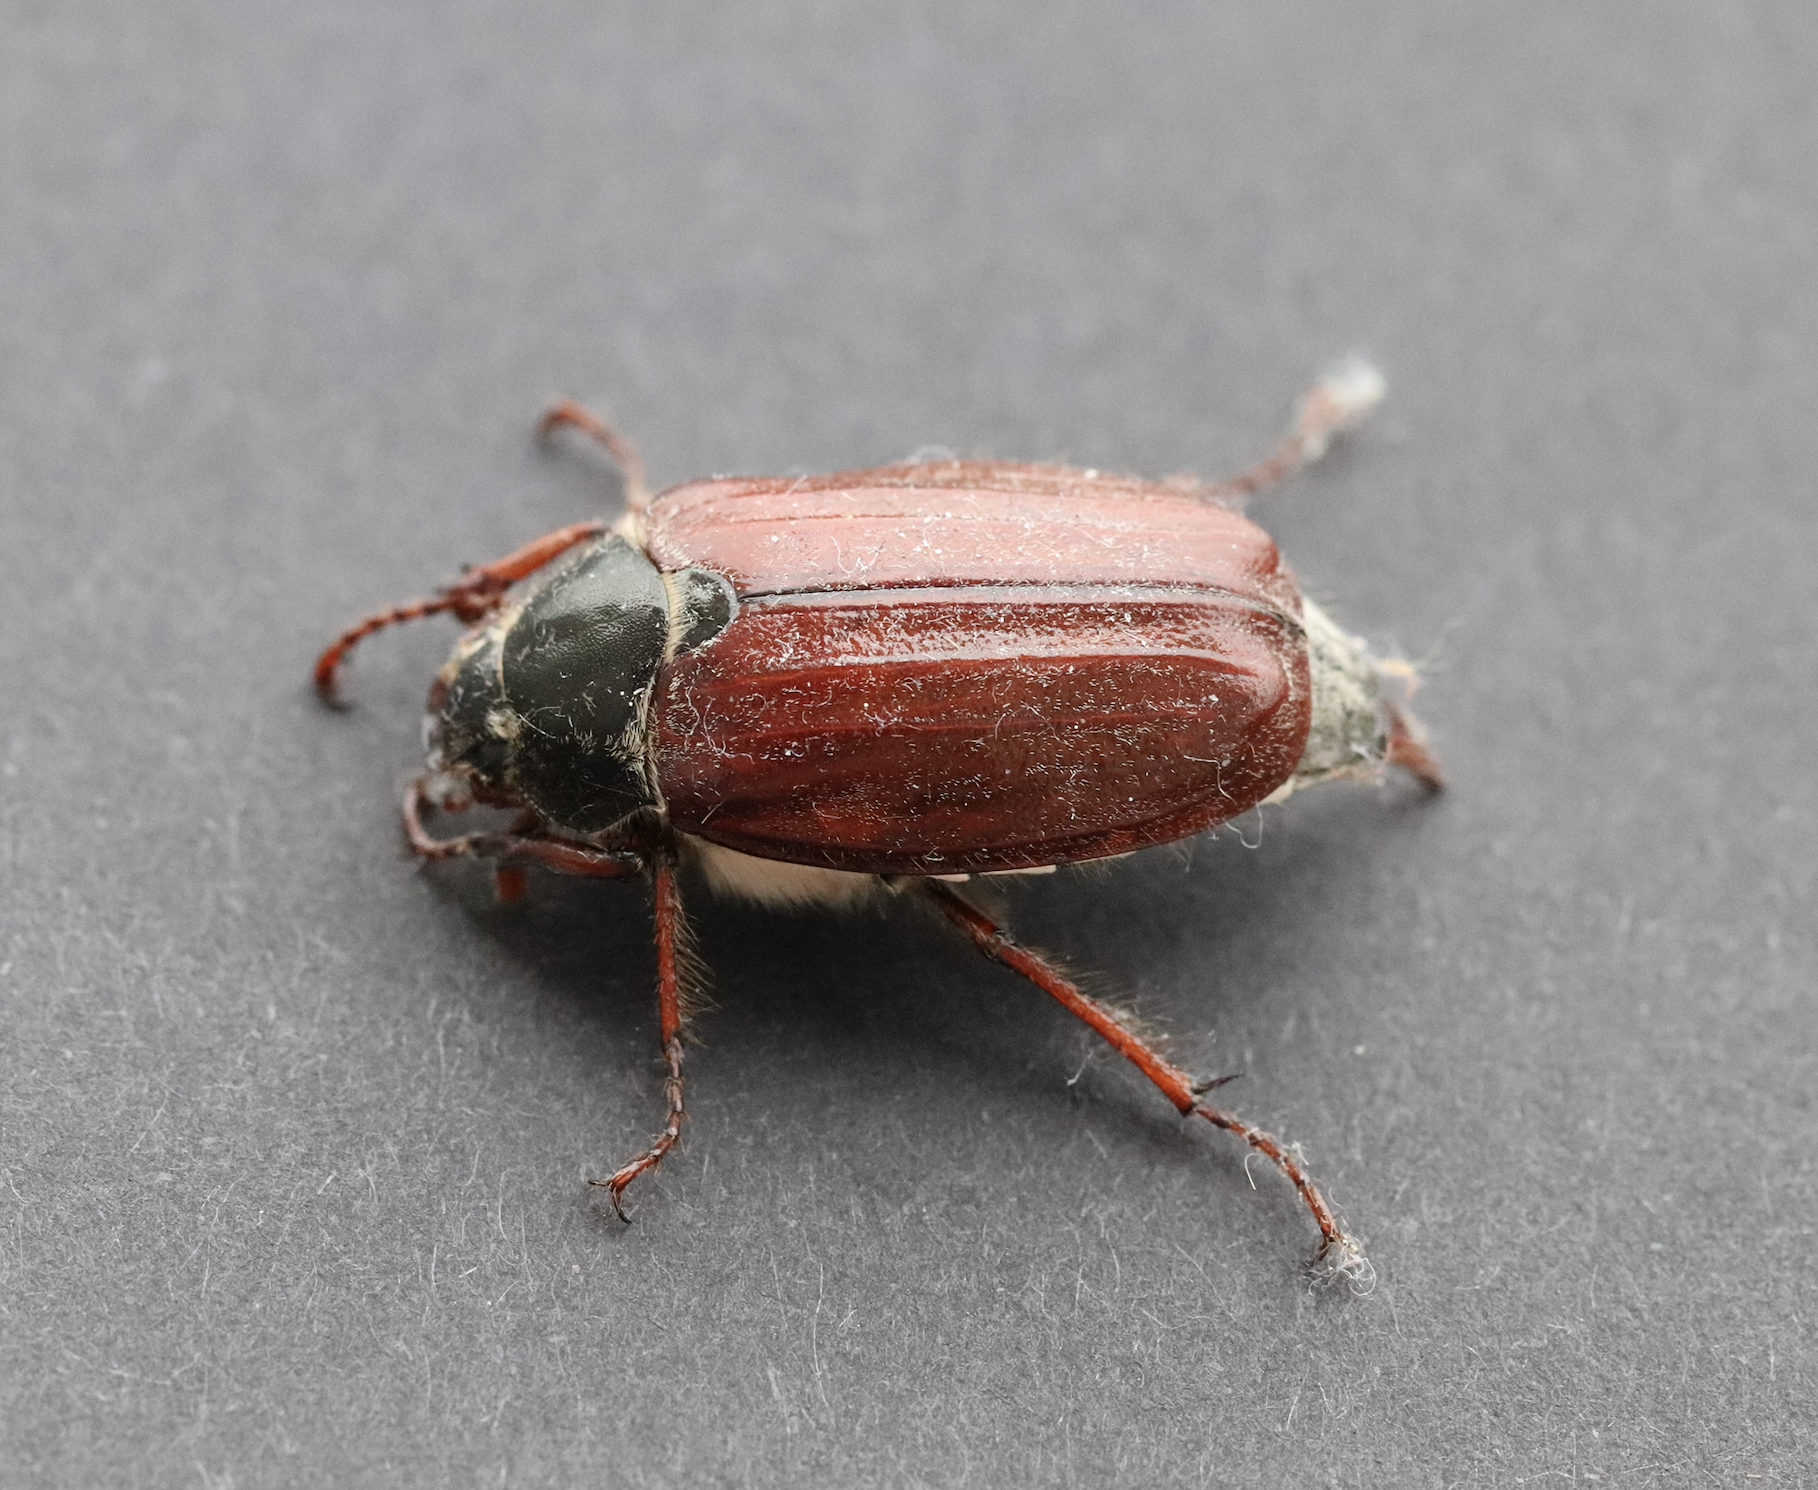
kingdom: Animalia
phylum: Arthropoda
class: Insecta
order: Coleoptera
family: Scarabaeidae
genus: Melolontha
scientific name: Melolontha melolontha
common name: Cockchafer maybeetle
